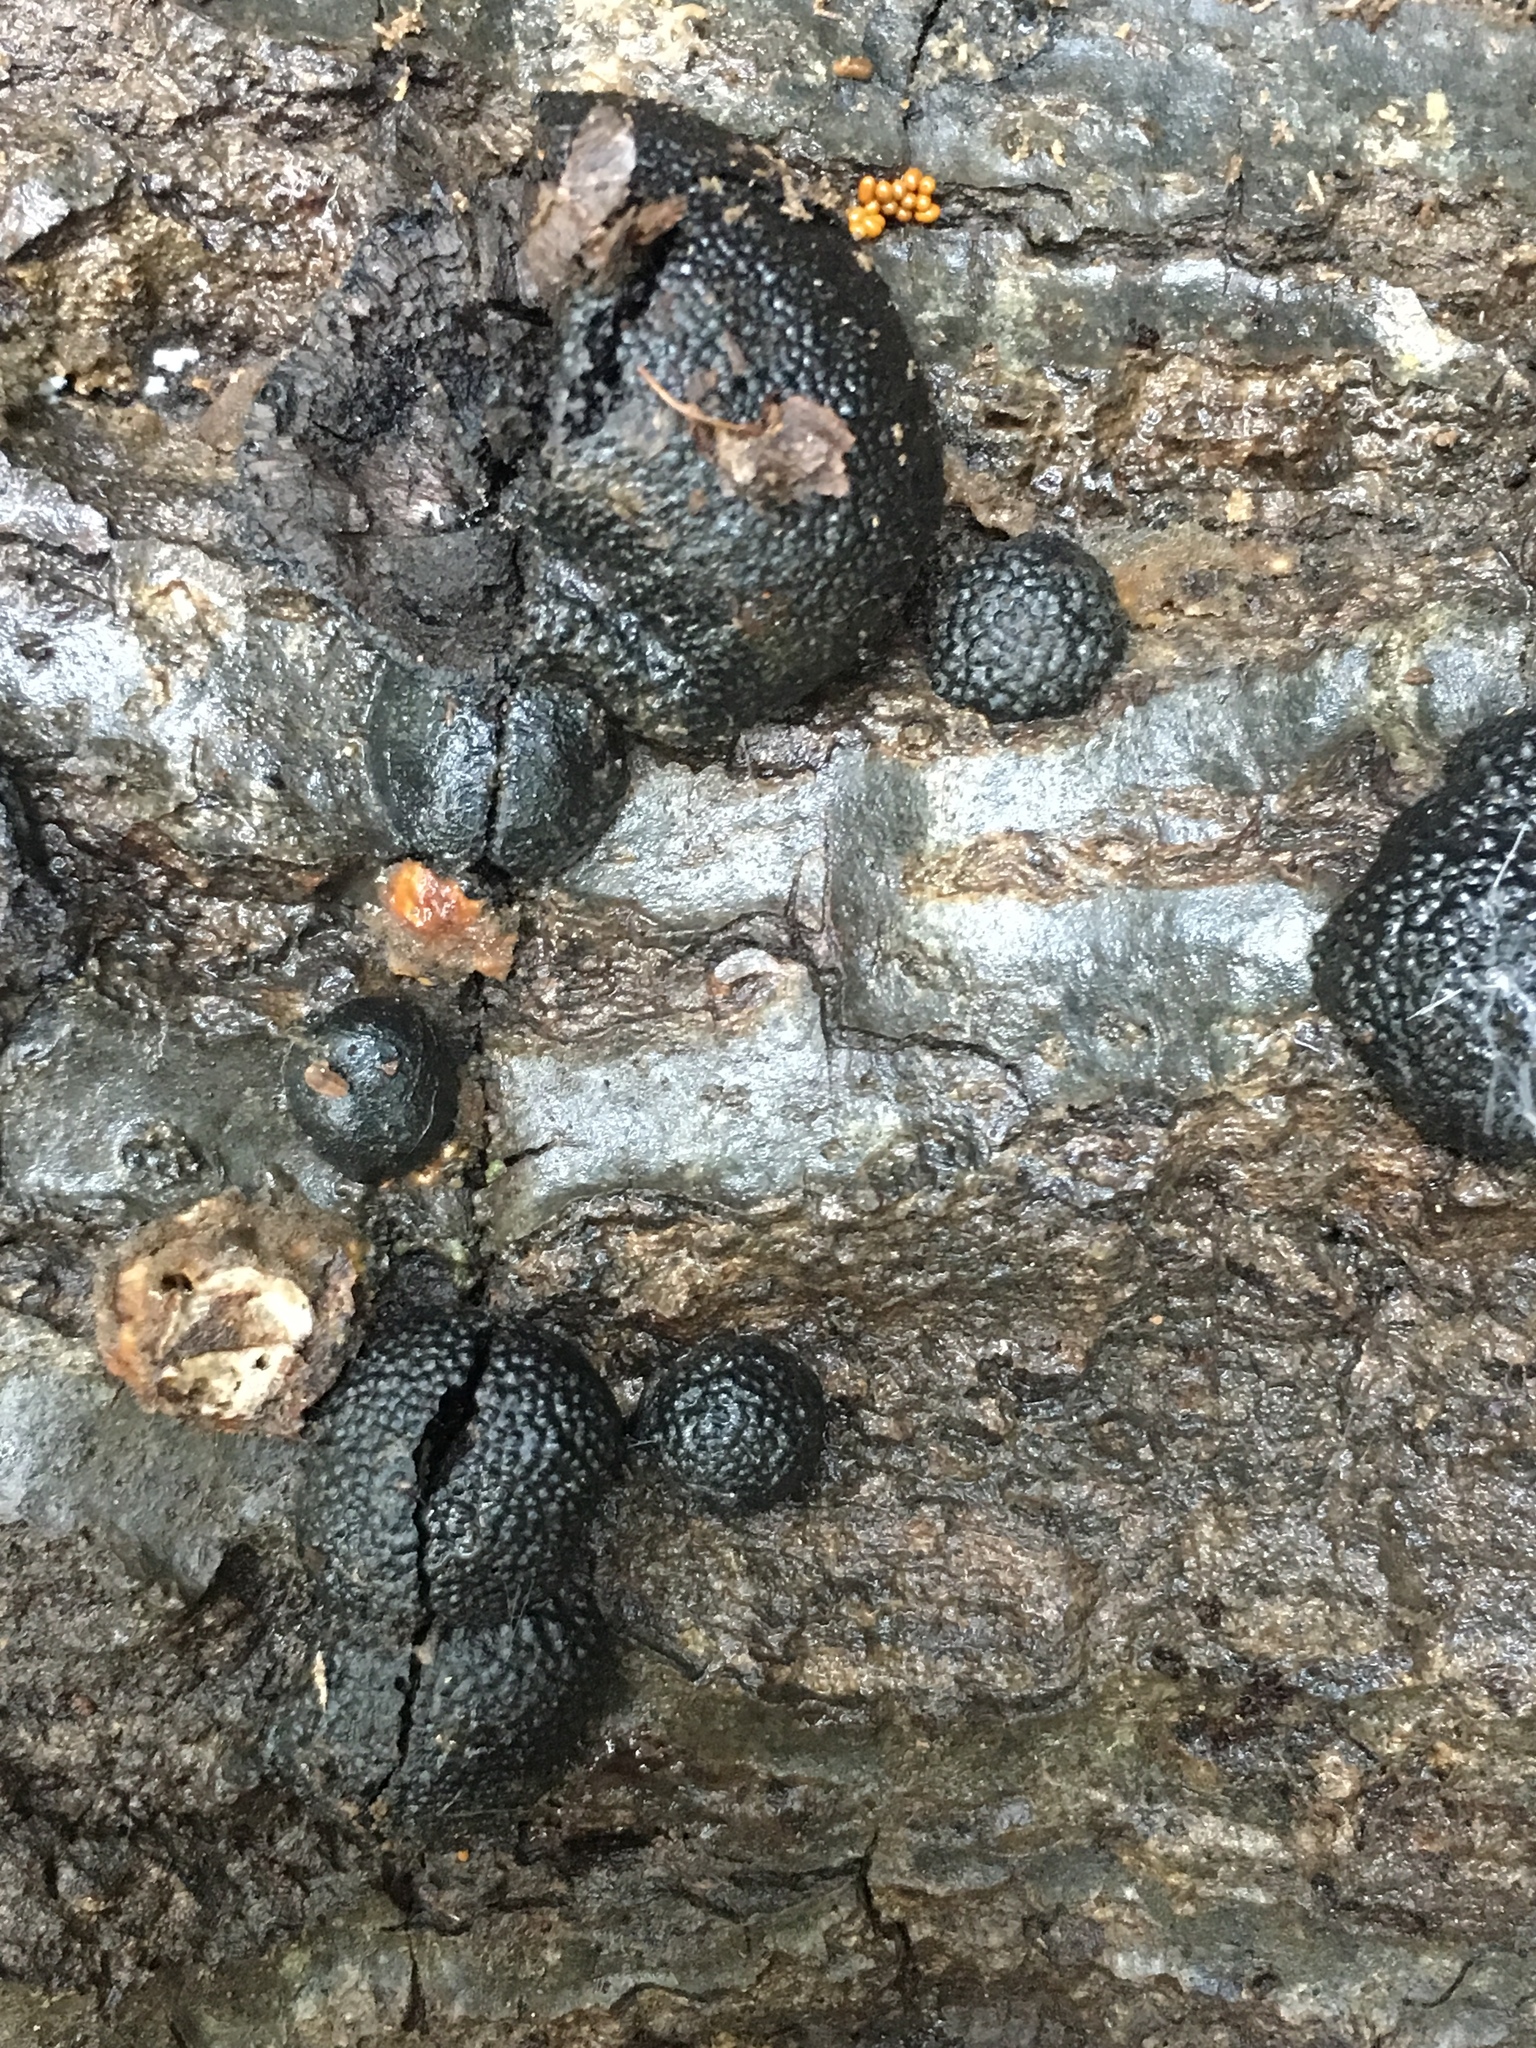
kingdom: Fungi
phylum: Ascomycota
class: Sordariomycetes
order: Xylariales
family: Hypoxylaceae
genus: Annulohypoxylon
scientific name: Annulohypoxylon thouarsianum
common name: Cramp balls
